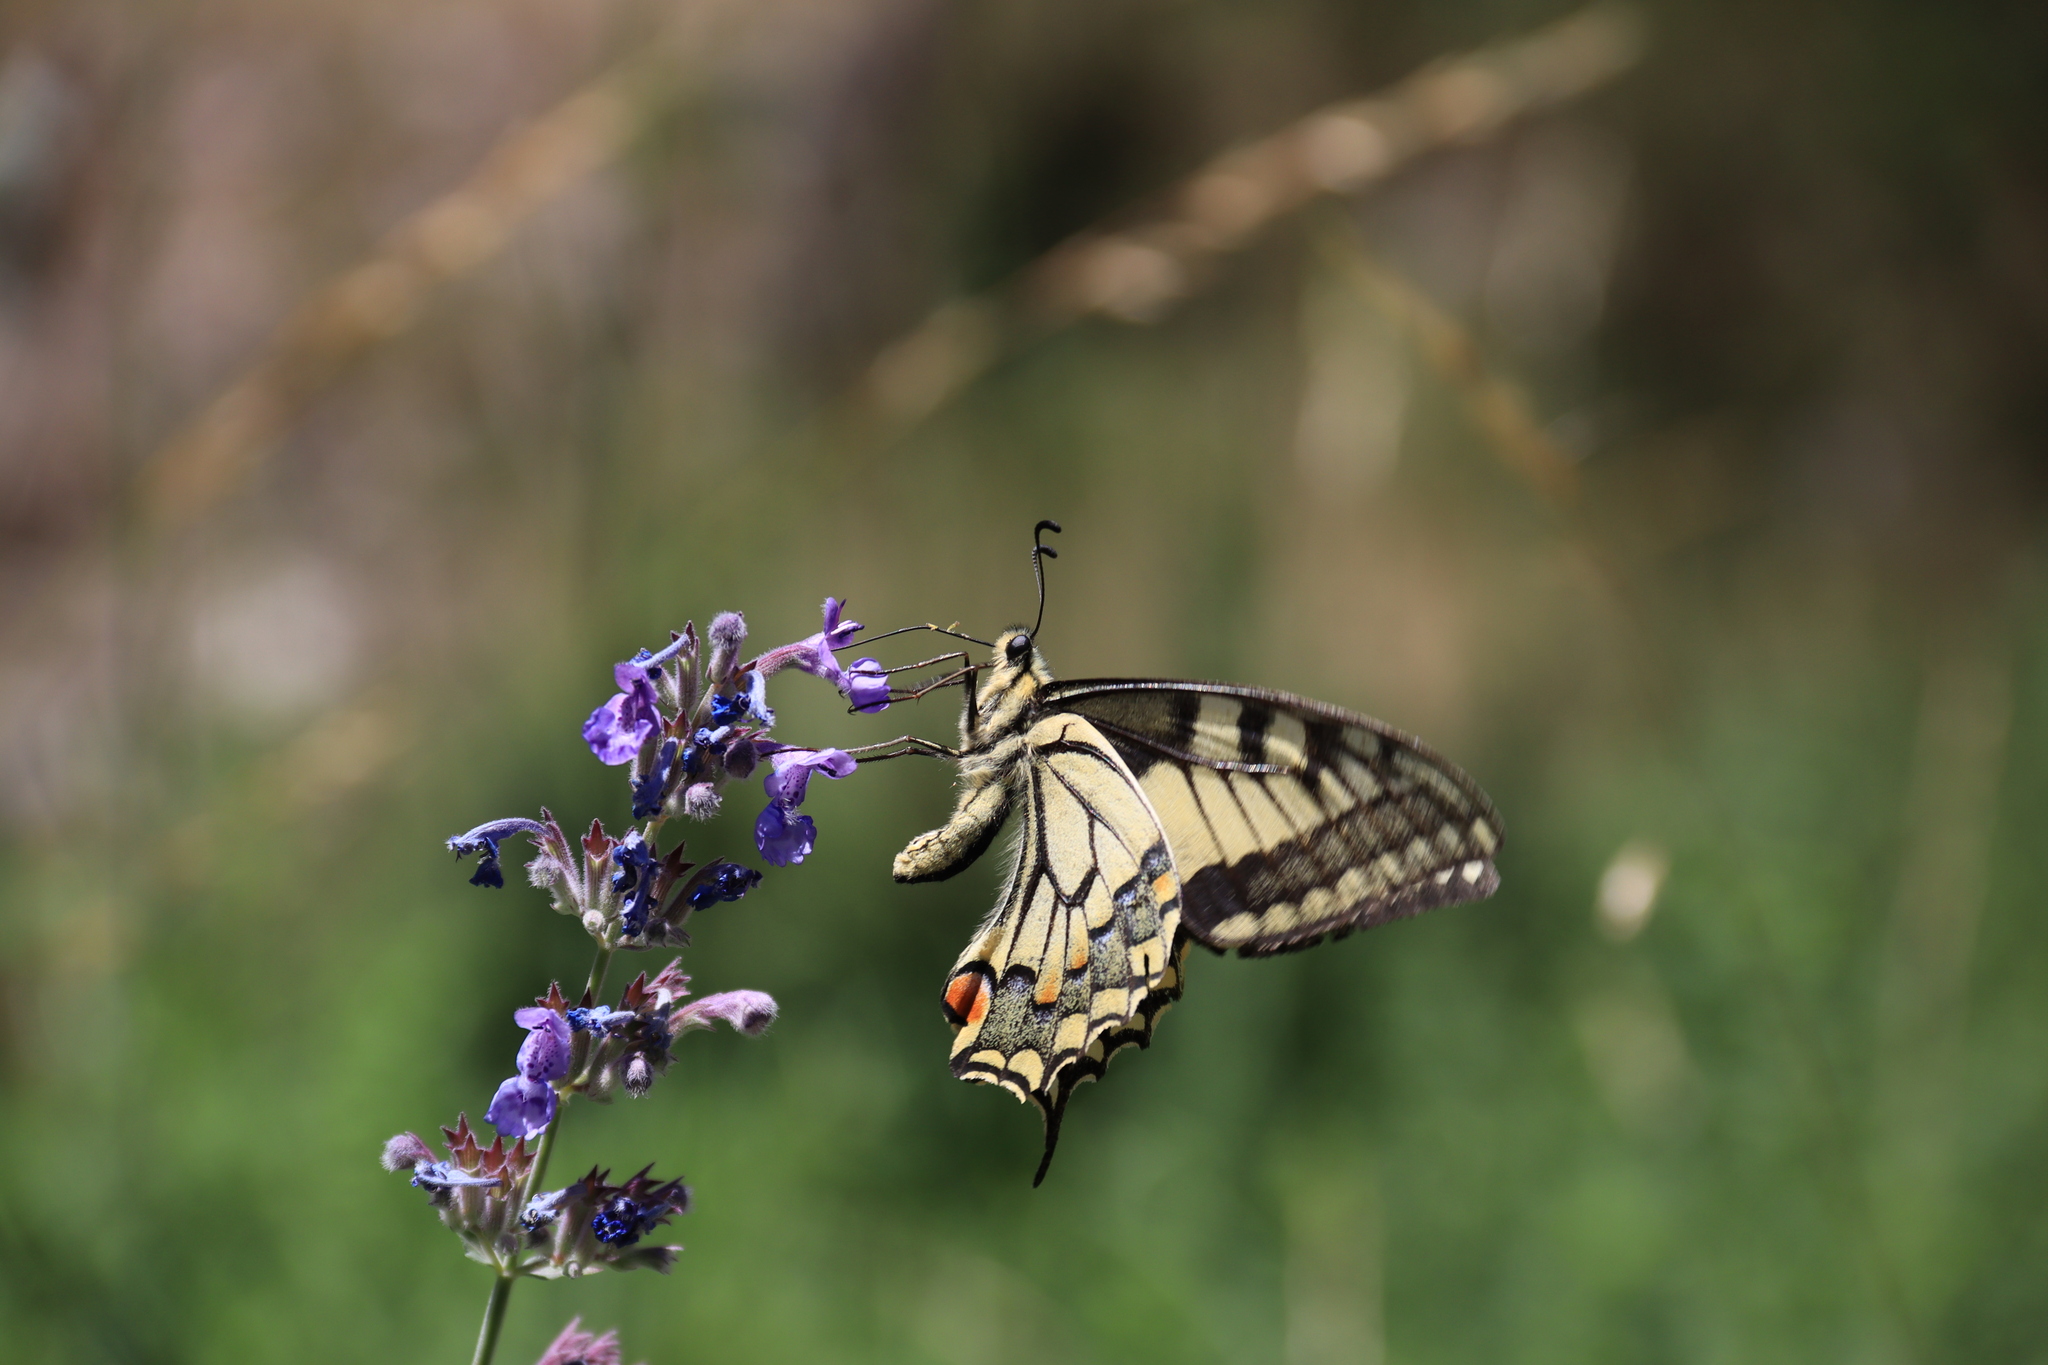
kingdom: Animalia
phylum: Arthropoda
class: Insecta
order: Lepidoptera
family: Papilionidae
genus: Papilio
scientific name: Papilio machaon
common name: Swallowtail
